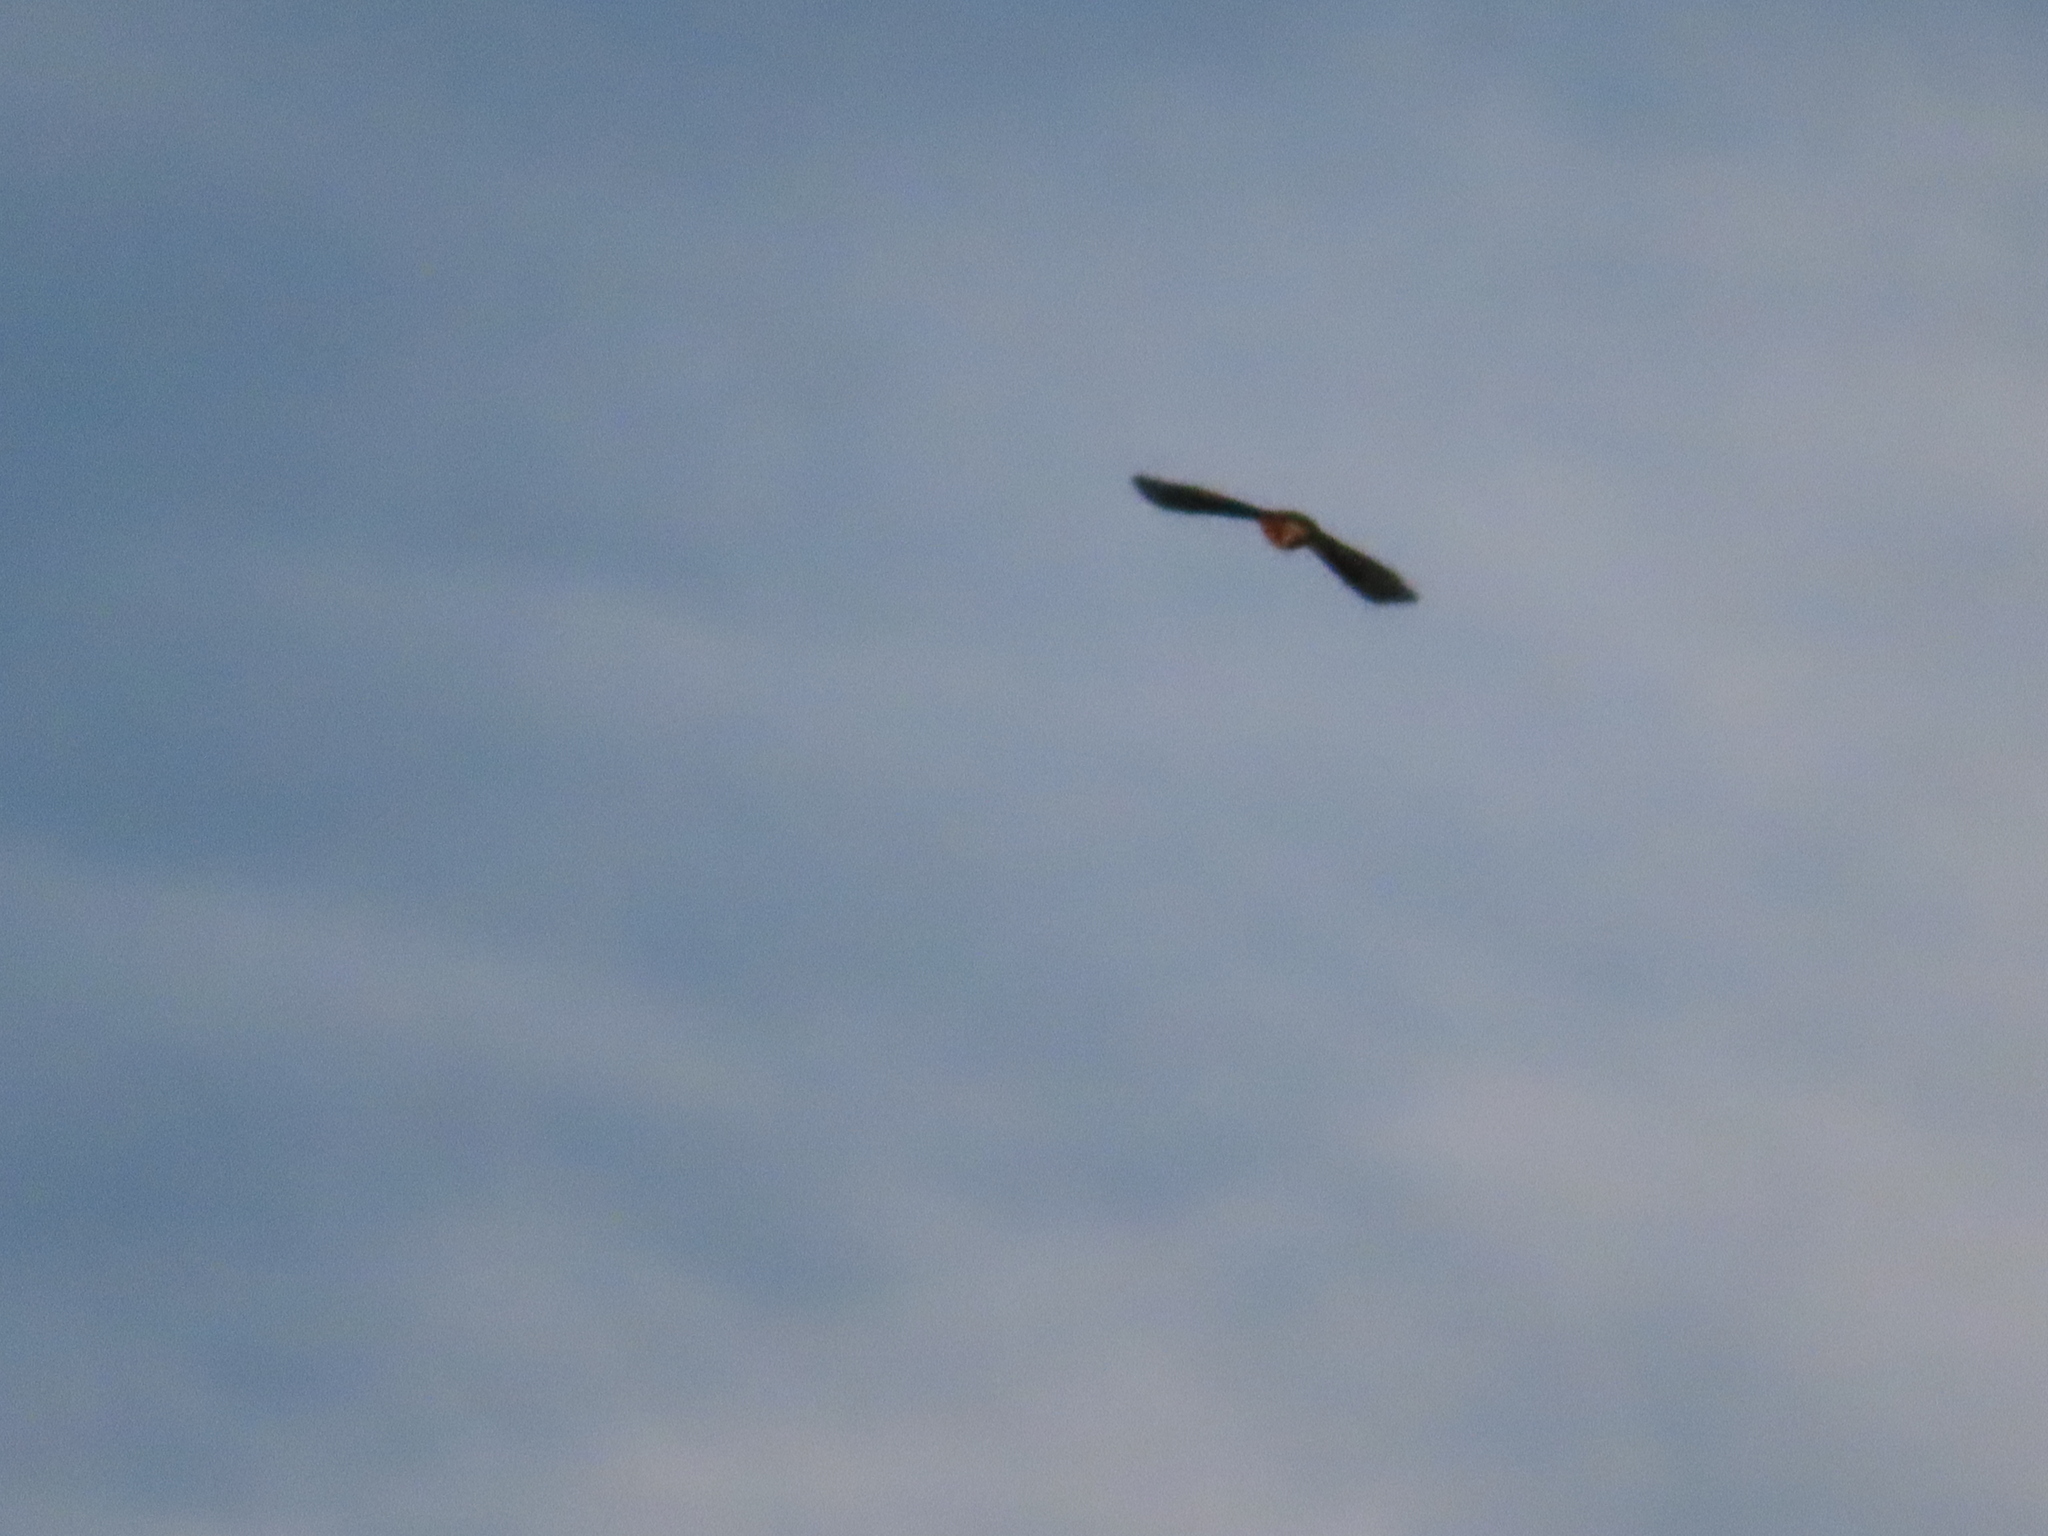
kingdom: Animalia
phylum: Chordata
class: Aves
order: Passeriformes
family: Turdidae
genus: Turdus
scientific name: Turdus migratorius
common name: American robin
